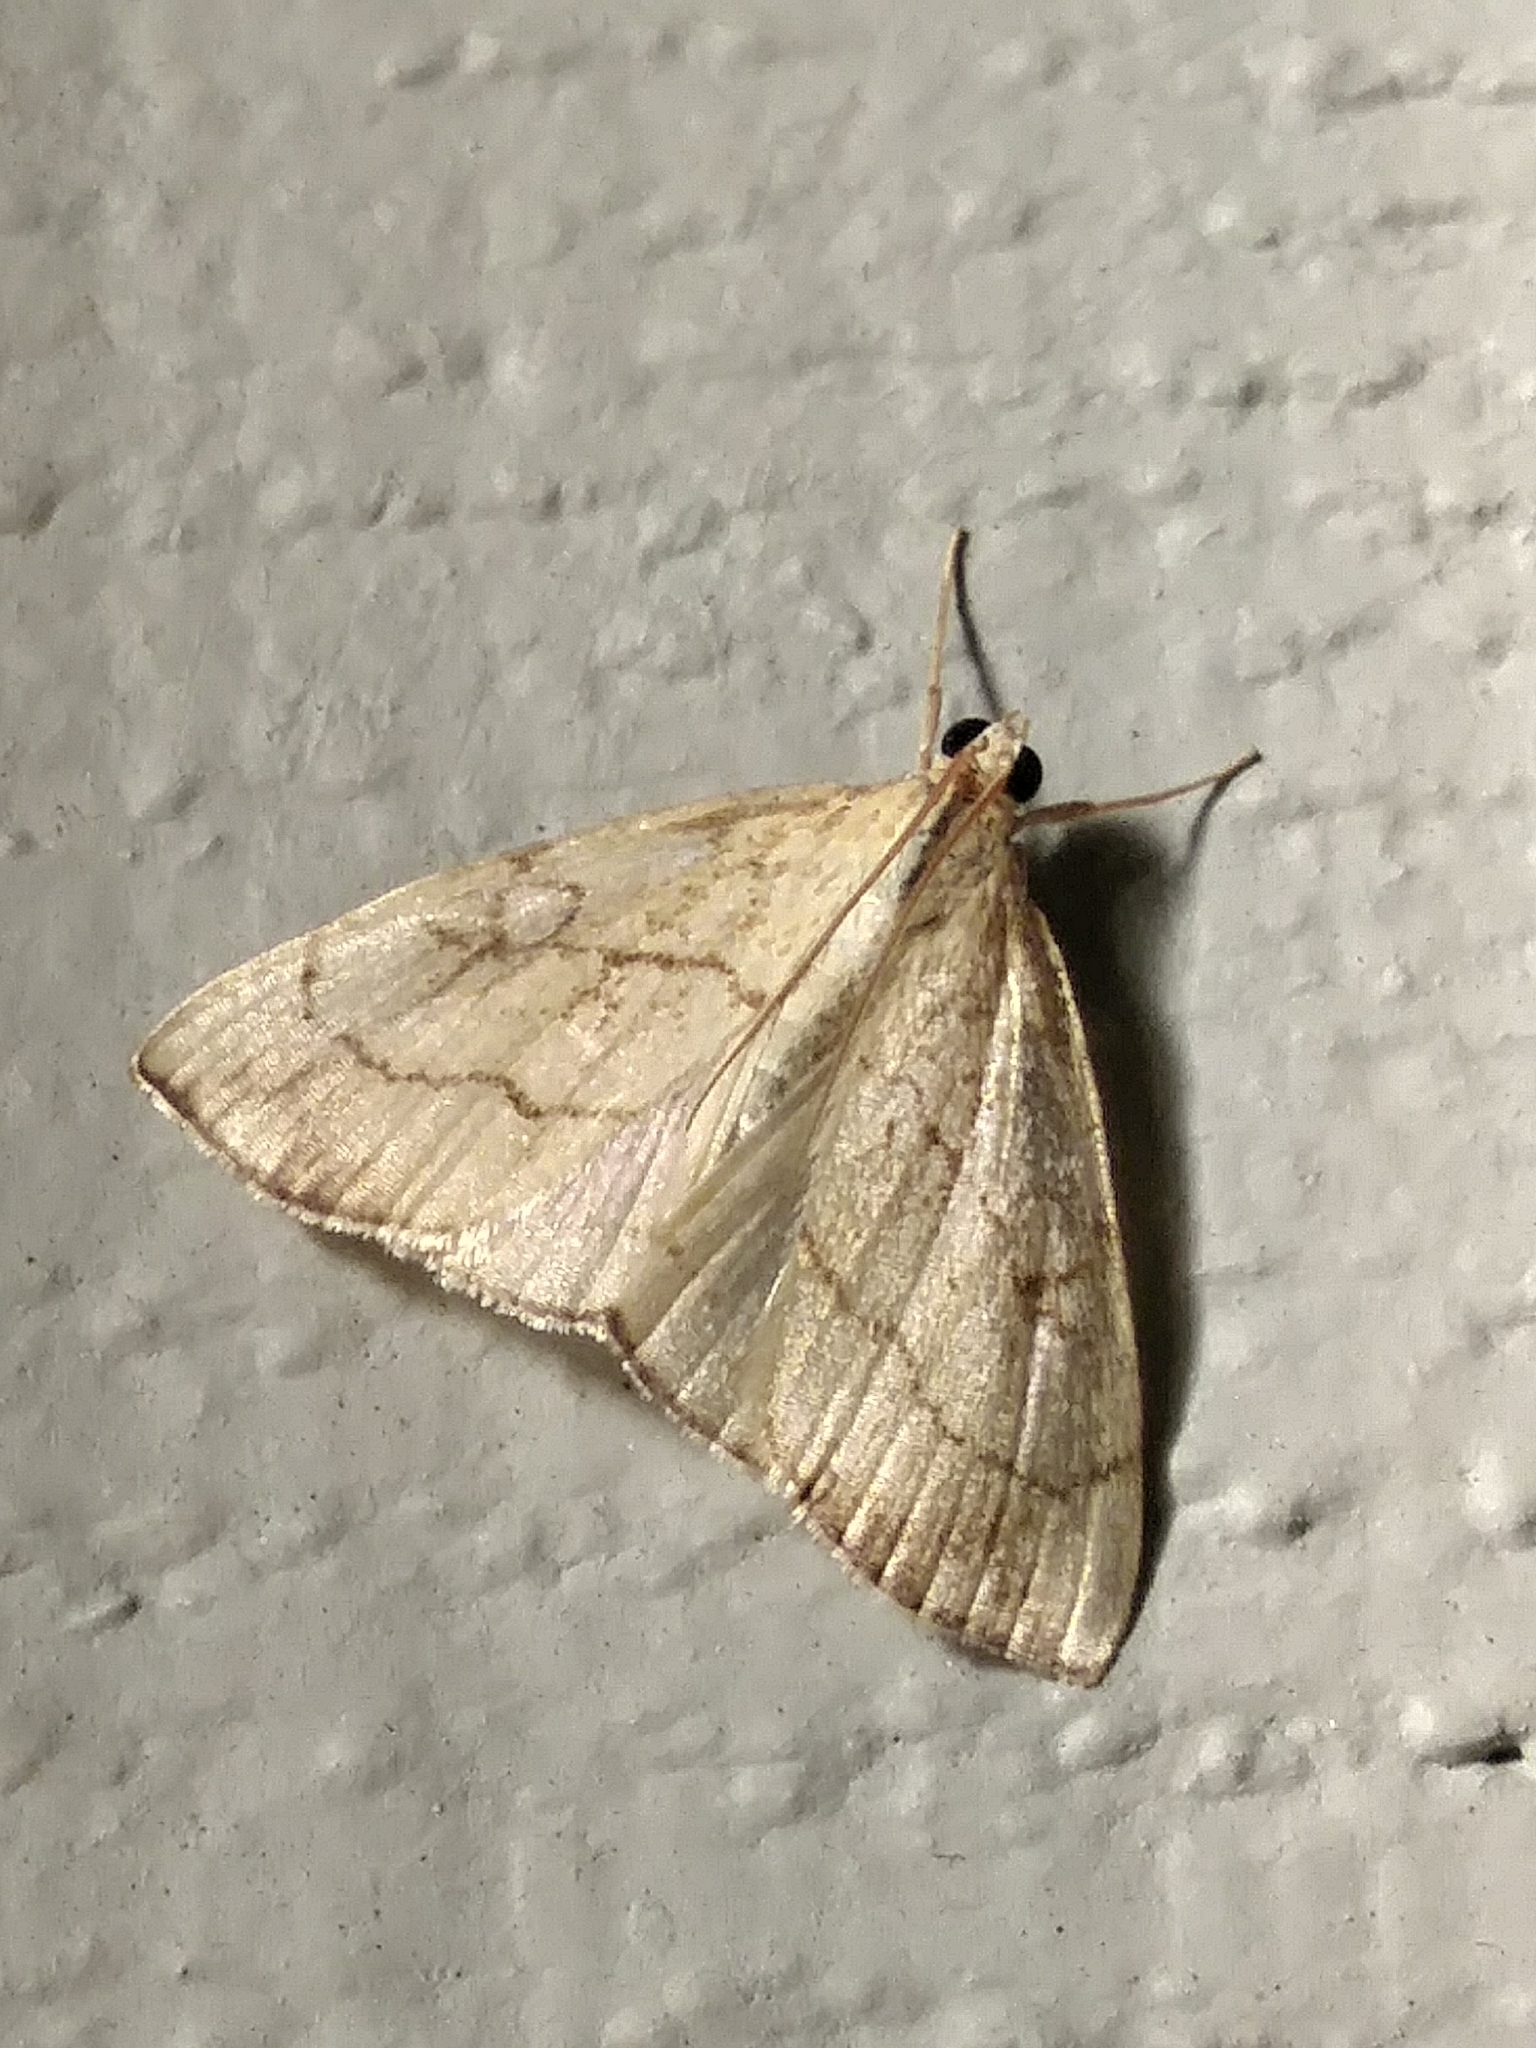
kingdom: Animalia
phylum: Arthropoda
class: Insecta
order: Lepidoptera
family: Crambidae
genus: Evergestis
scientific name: Evergestis pallidata
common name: Chequered pearl
